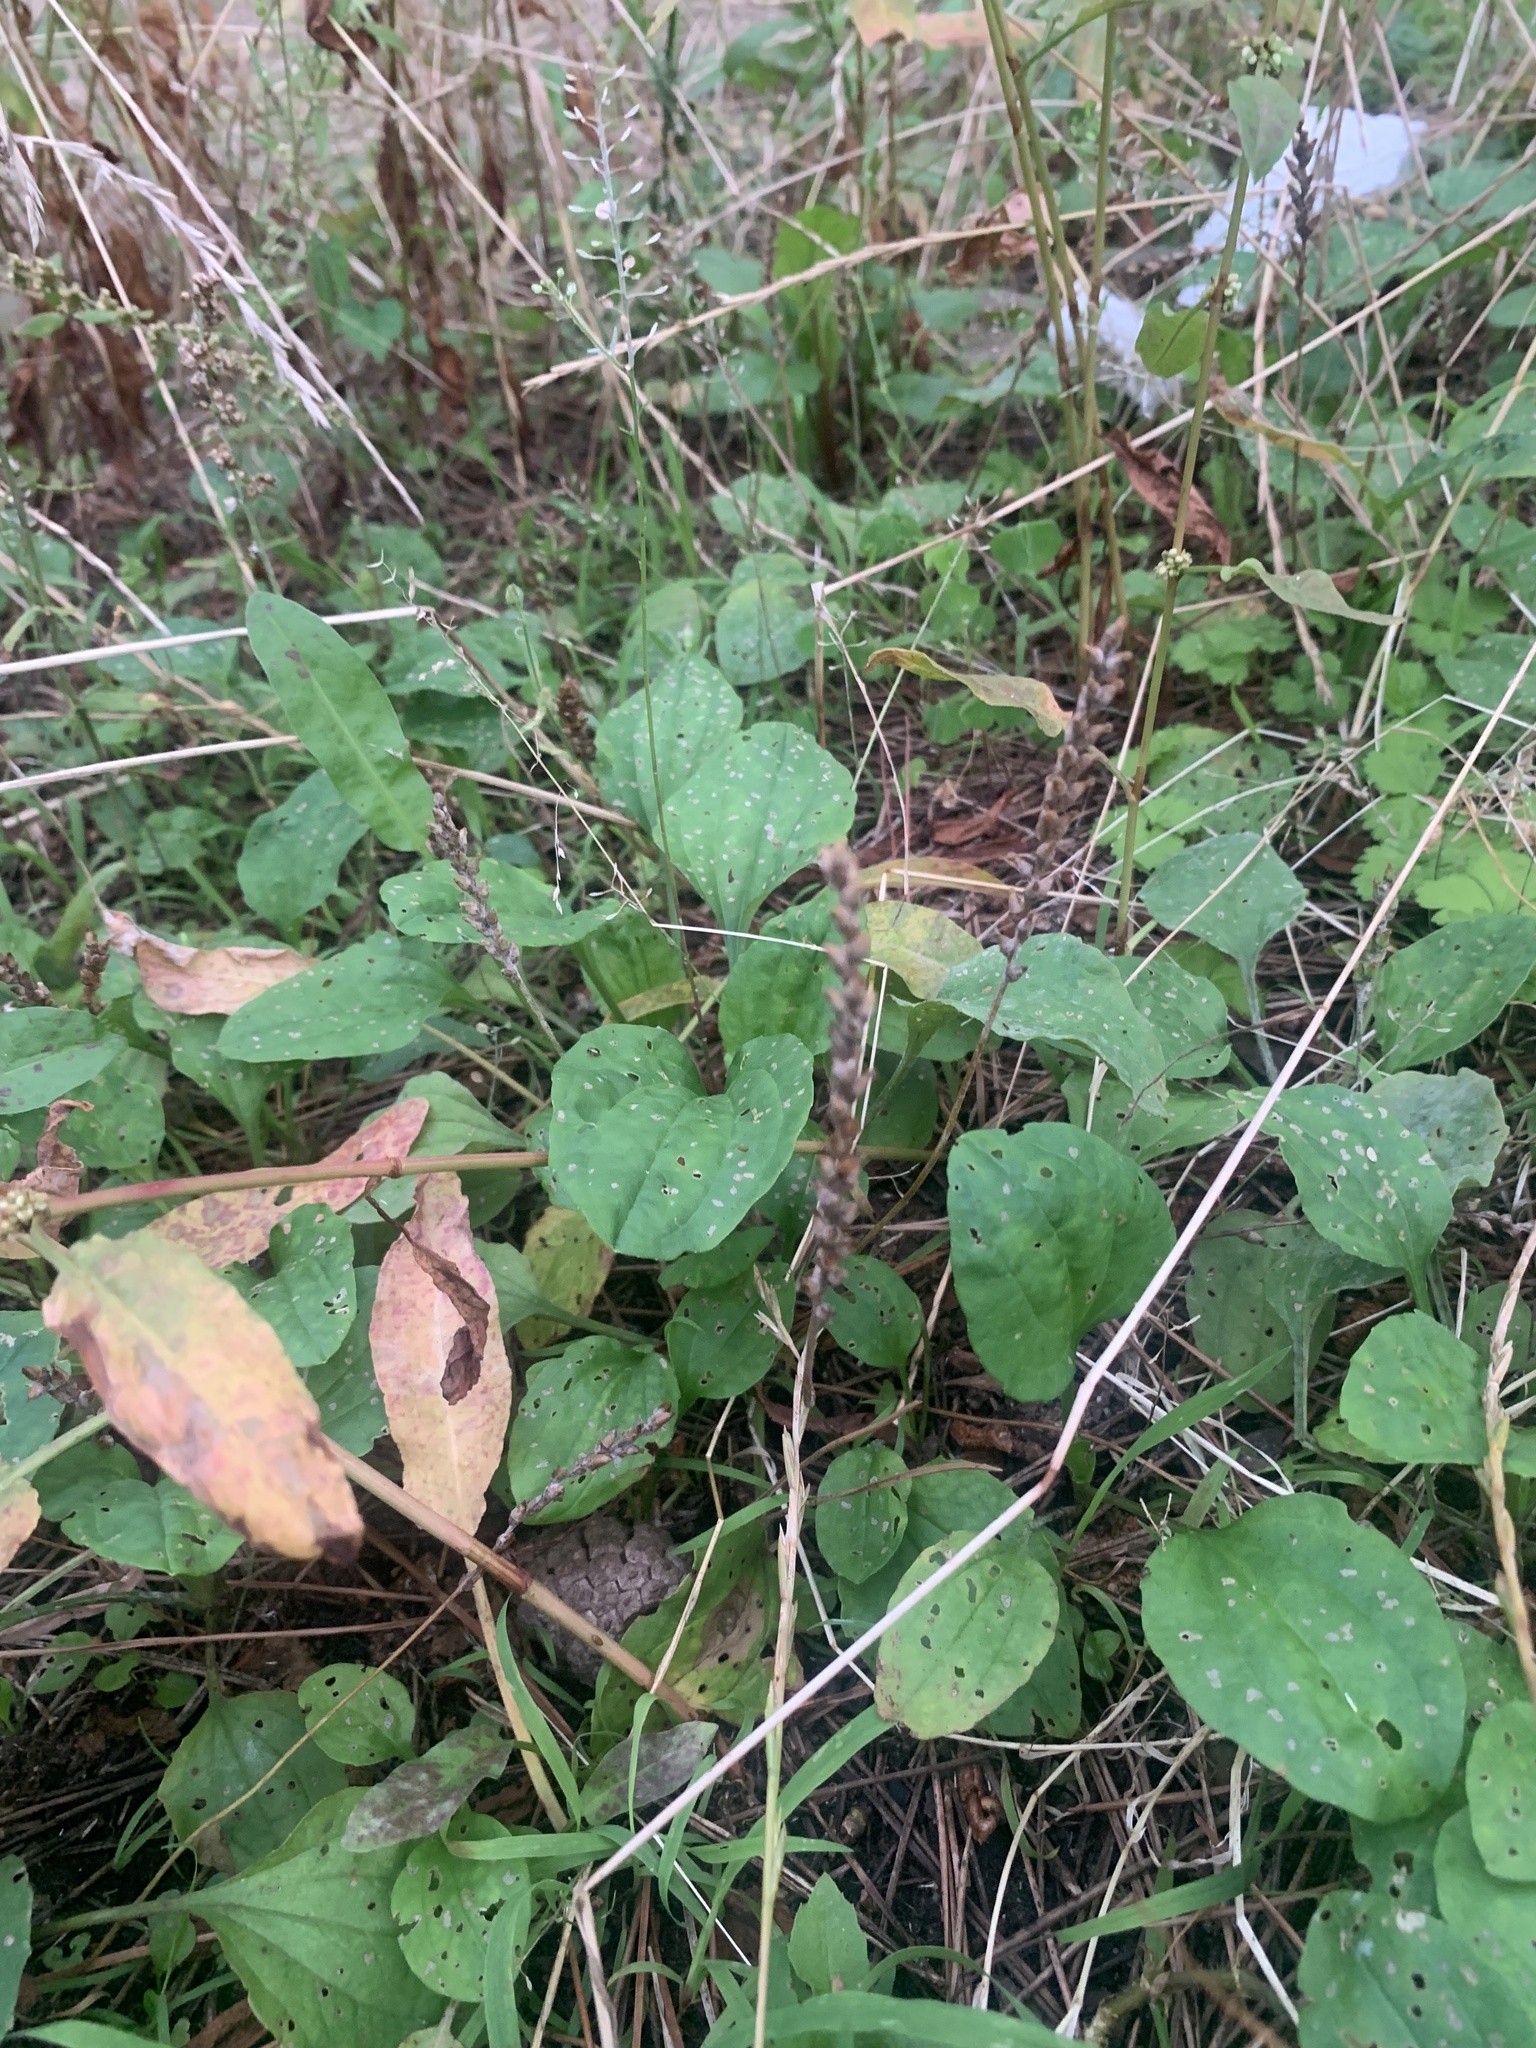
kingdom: Plantae
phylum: Tracheophyta
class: Magnoliopsida
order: Lamiales
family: Plantaginaceae
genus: Plantago
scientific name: Plantago asiatica
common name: Psyllium
